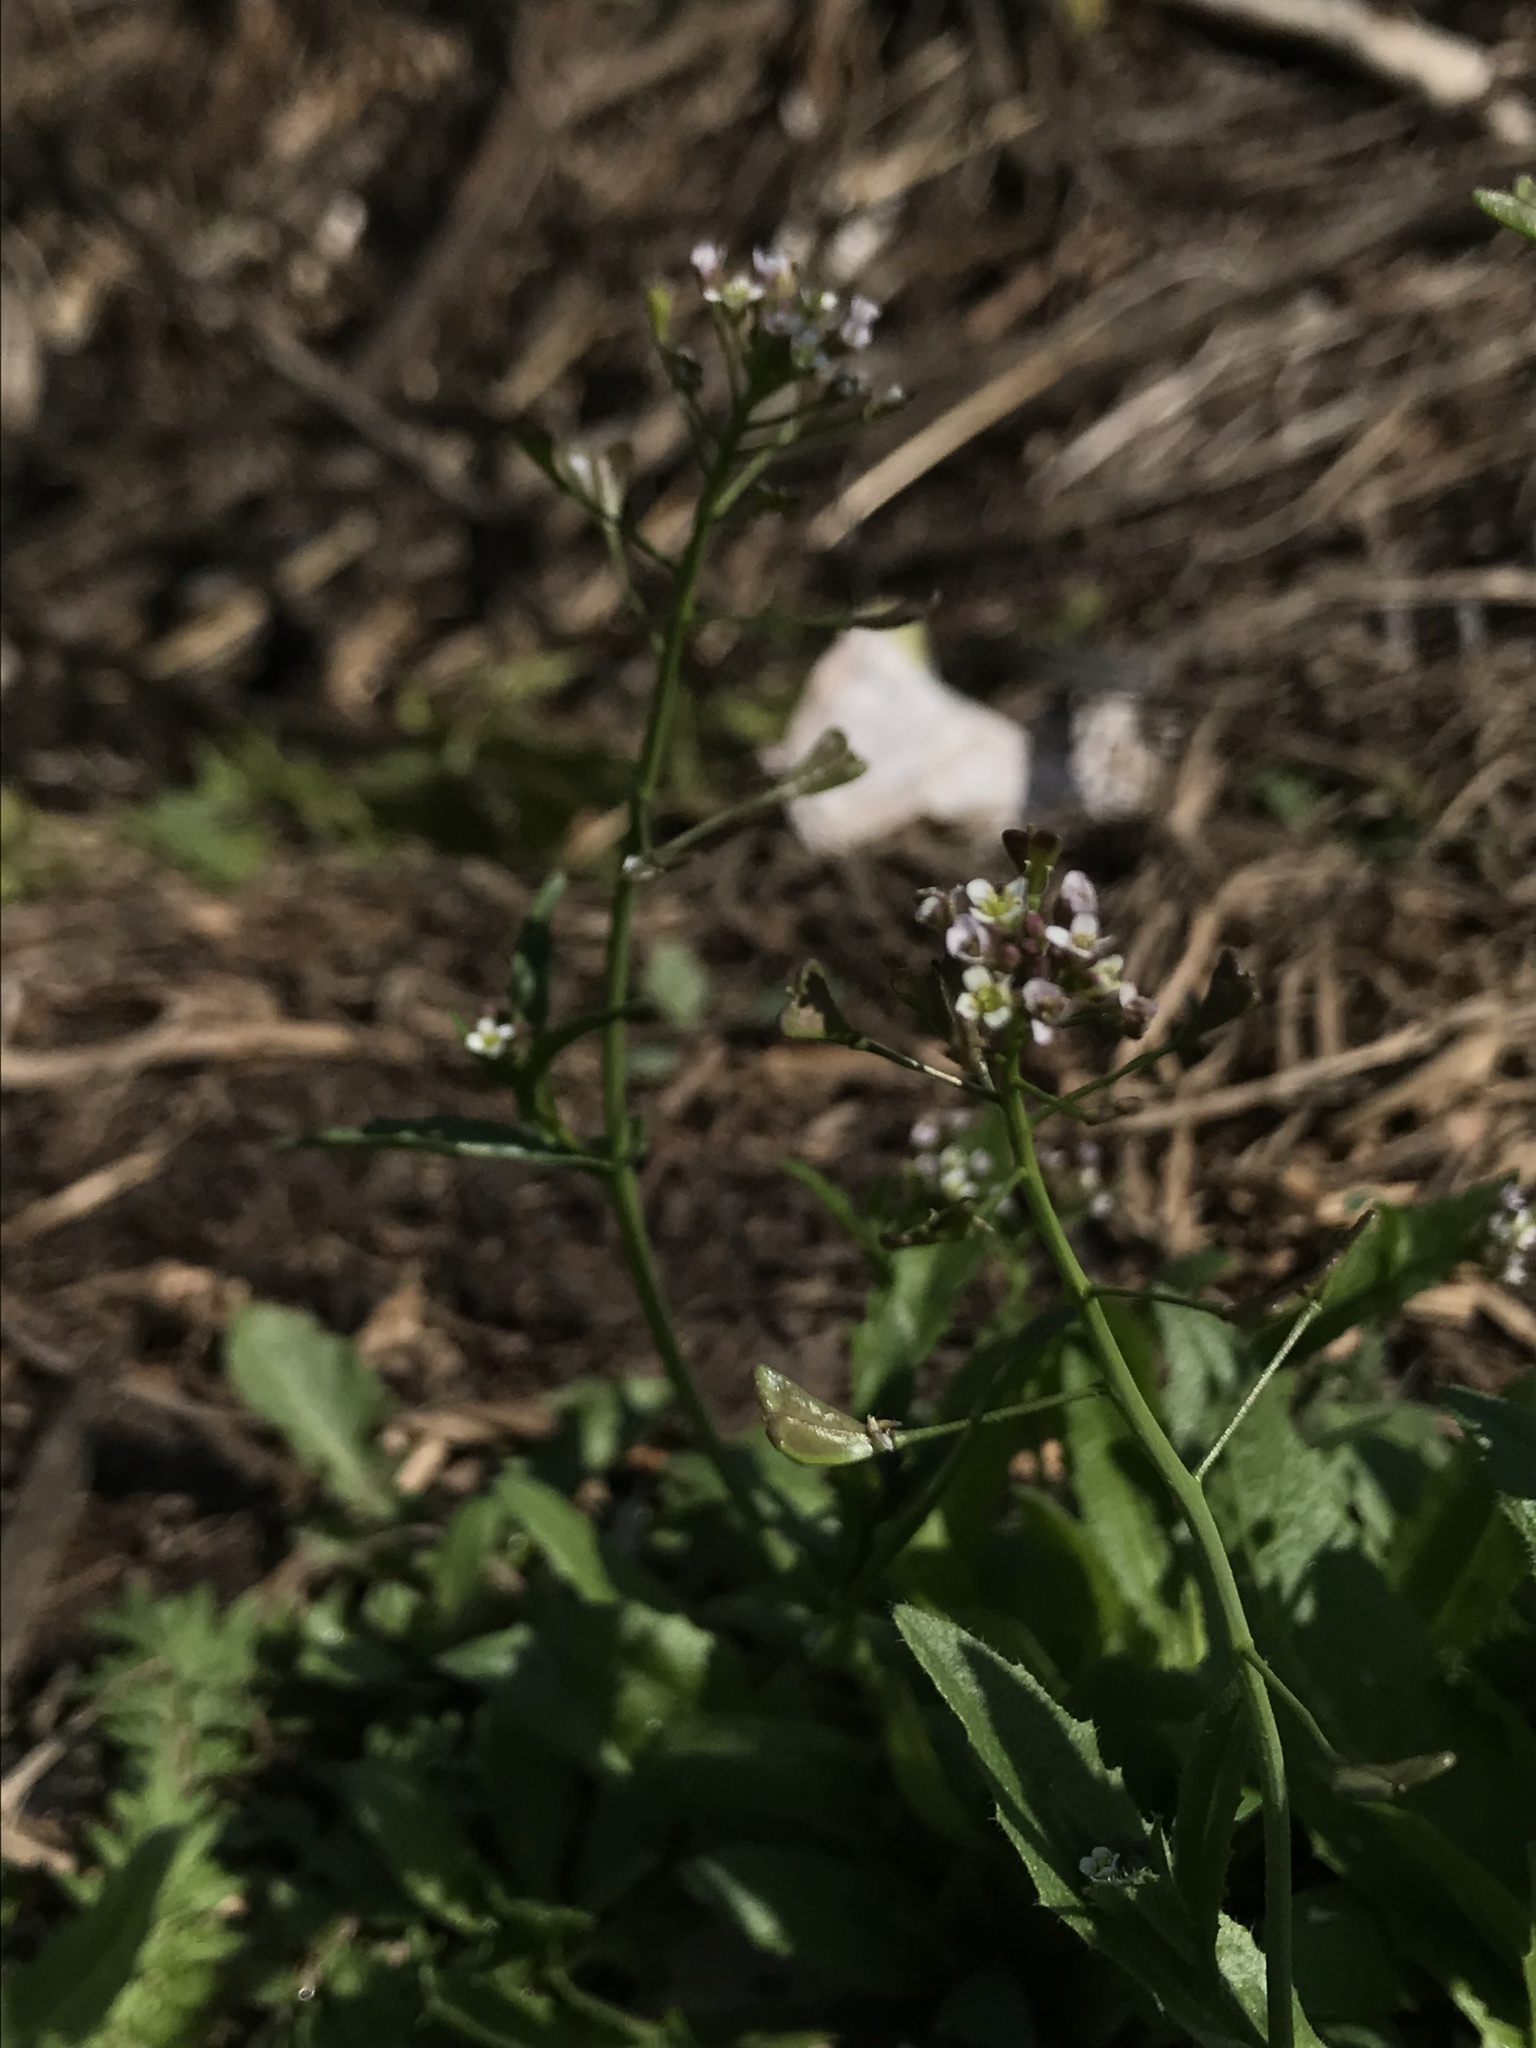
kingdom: Plantae
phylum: Tracheophyta
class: Magnoliopsida
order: Brassicales
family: Brassicaceae
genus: Capsella
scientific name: Capsella bursa-pastoris
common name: Shepherd's purse
